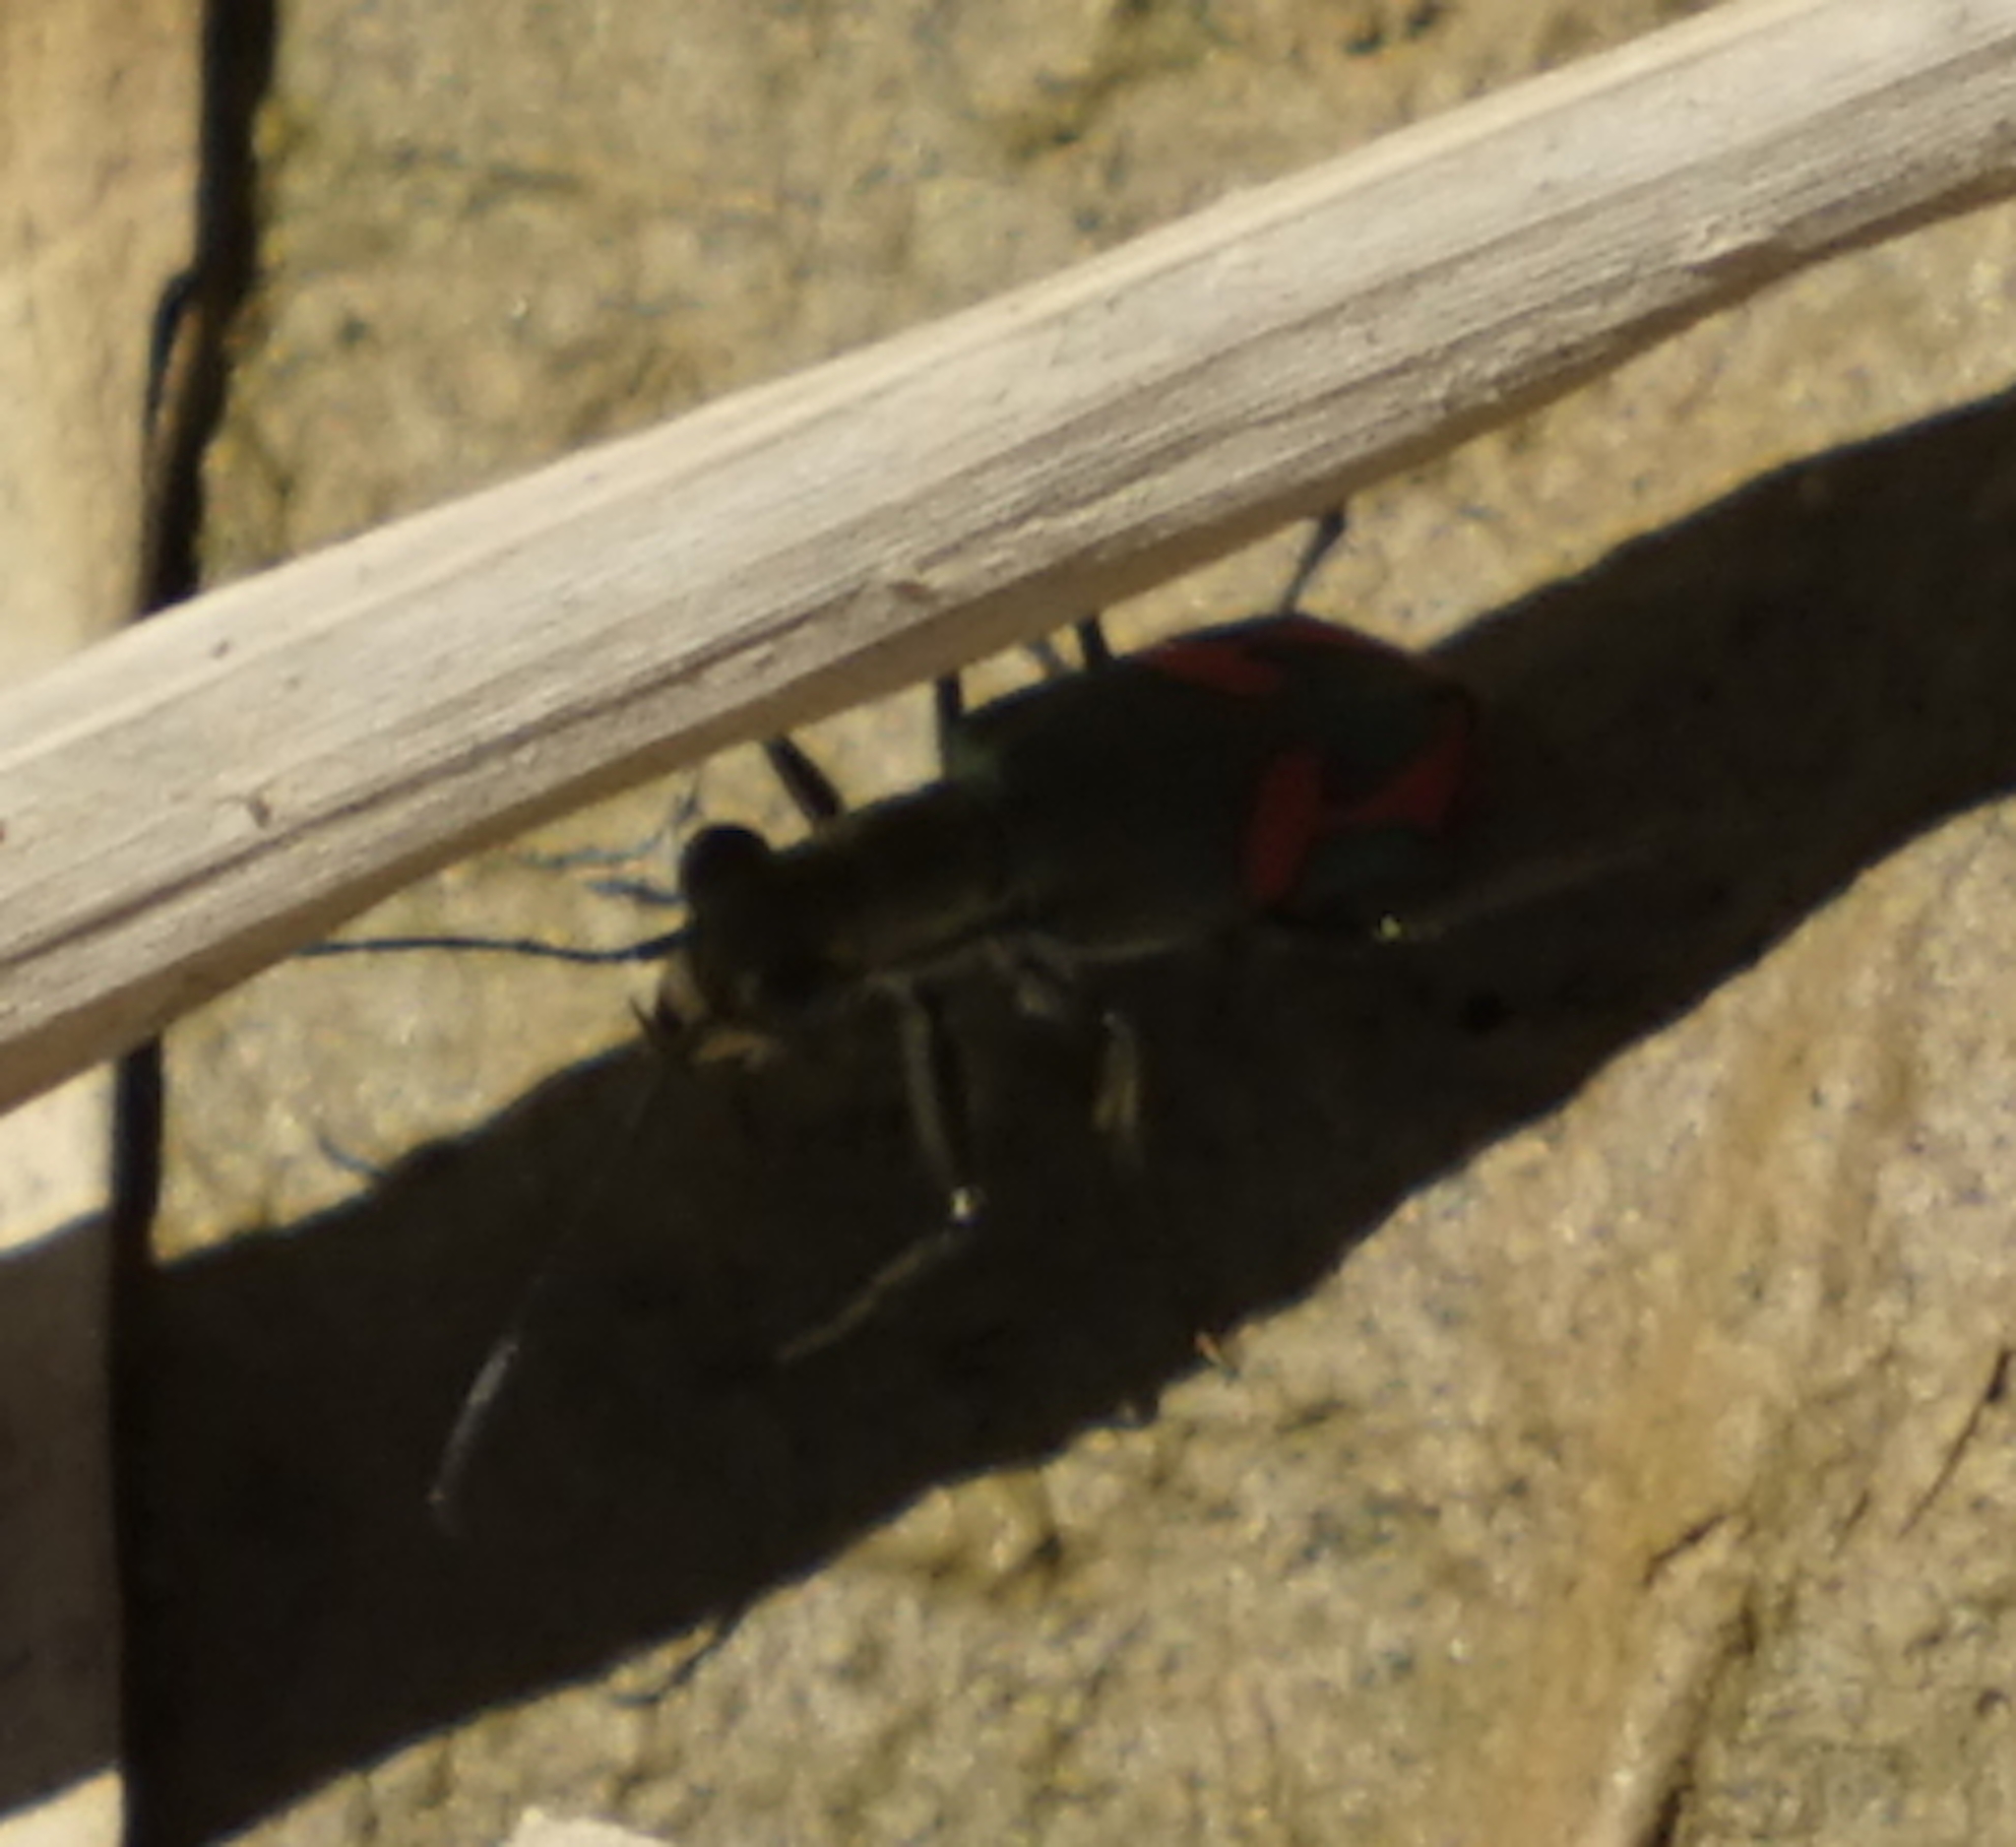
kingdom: Animalia
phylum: Arthropoda
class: Insecta
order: Coleoptera
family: Carabidae
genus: Cicindela
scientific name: Cicindela crespignyi
